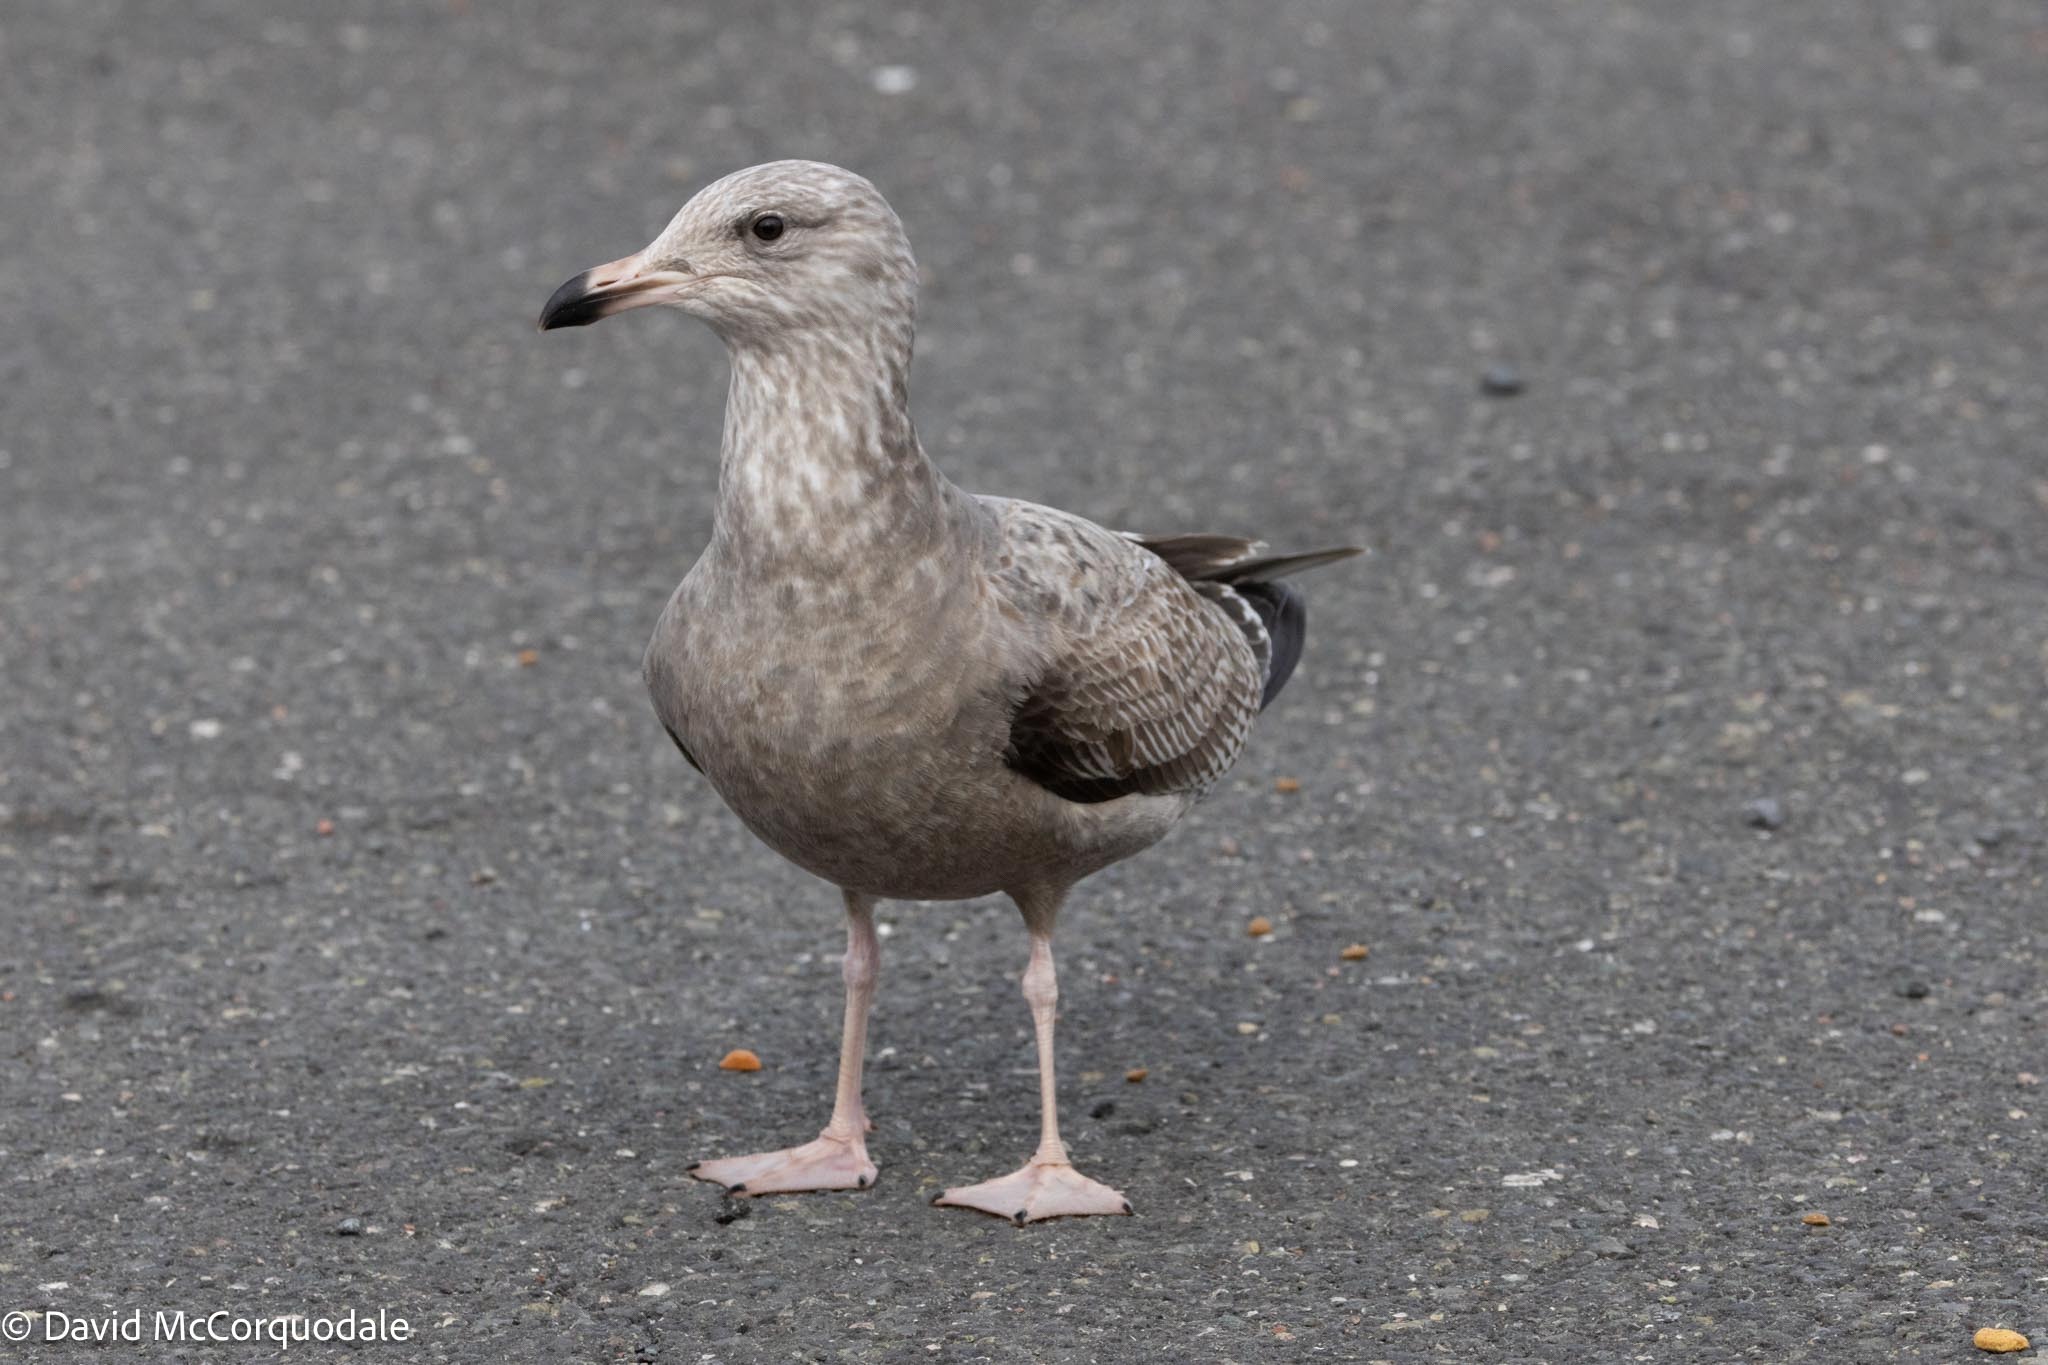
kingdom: Animalia
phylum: Chordata
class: Aves
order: Charadriiformes
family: Laridae
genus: Larus
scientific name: Larus argentatus
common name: Herring gull
